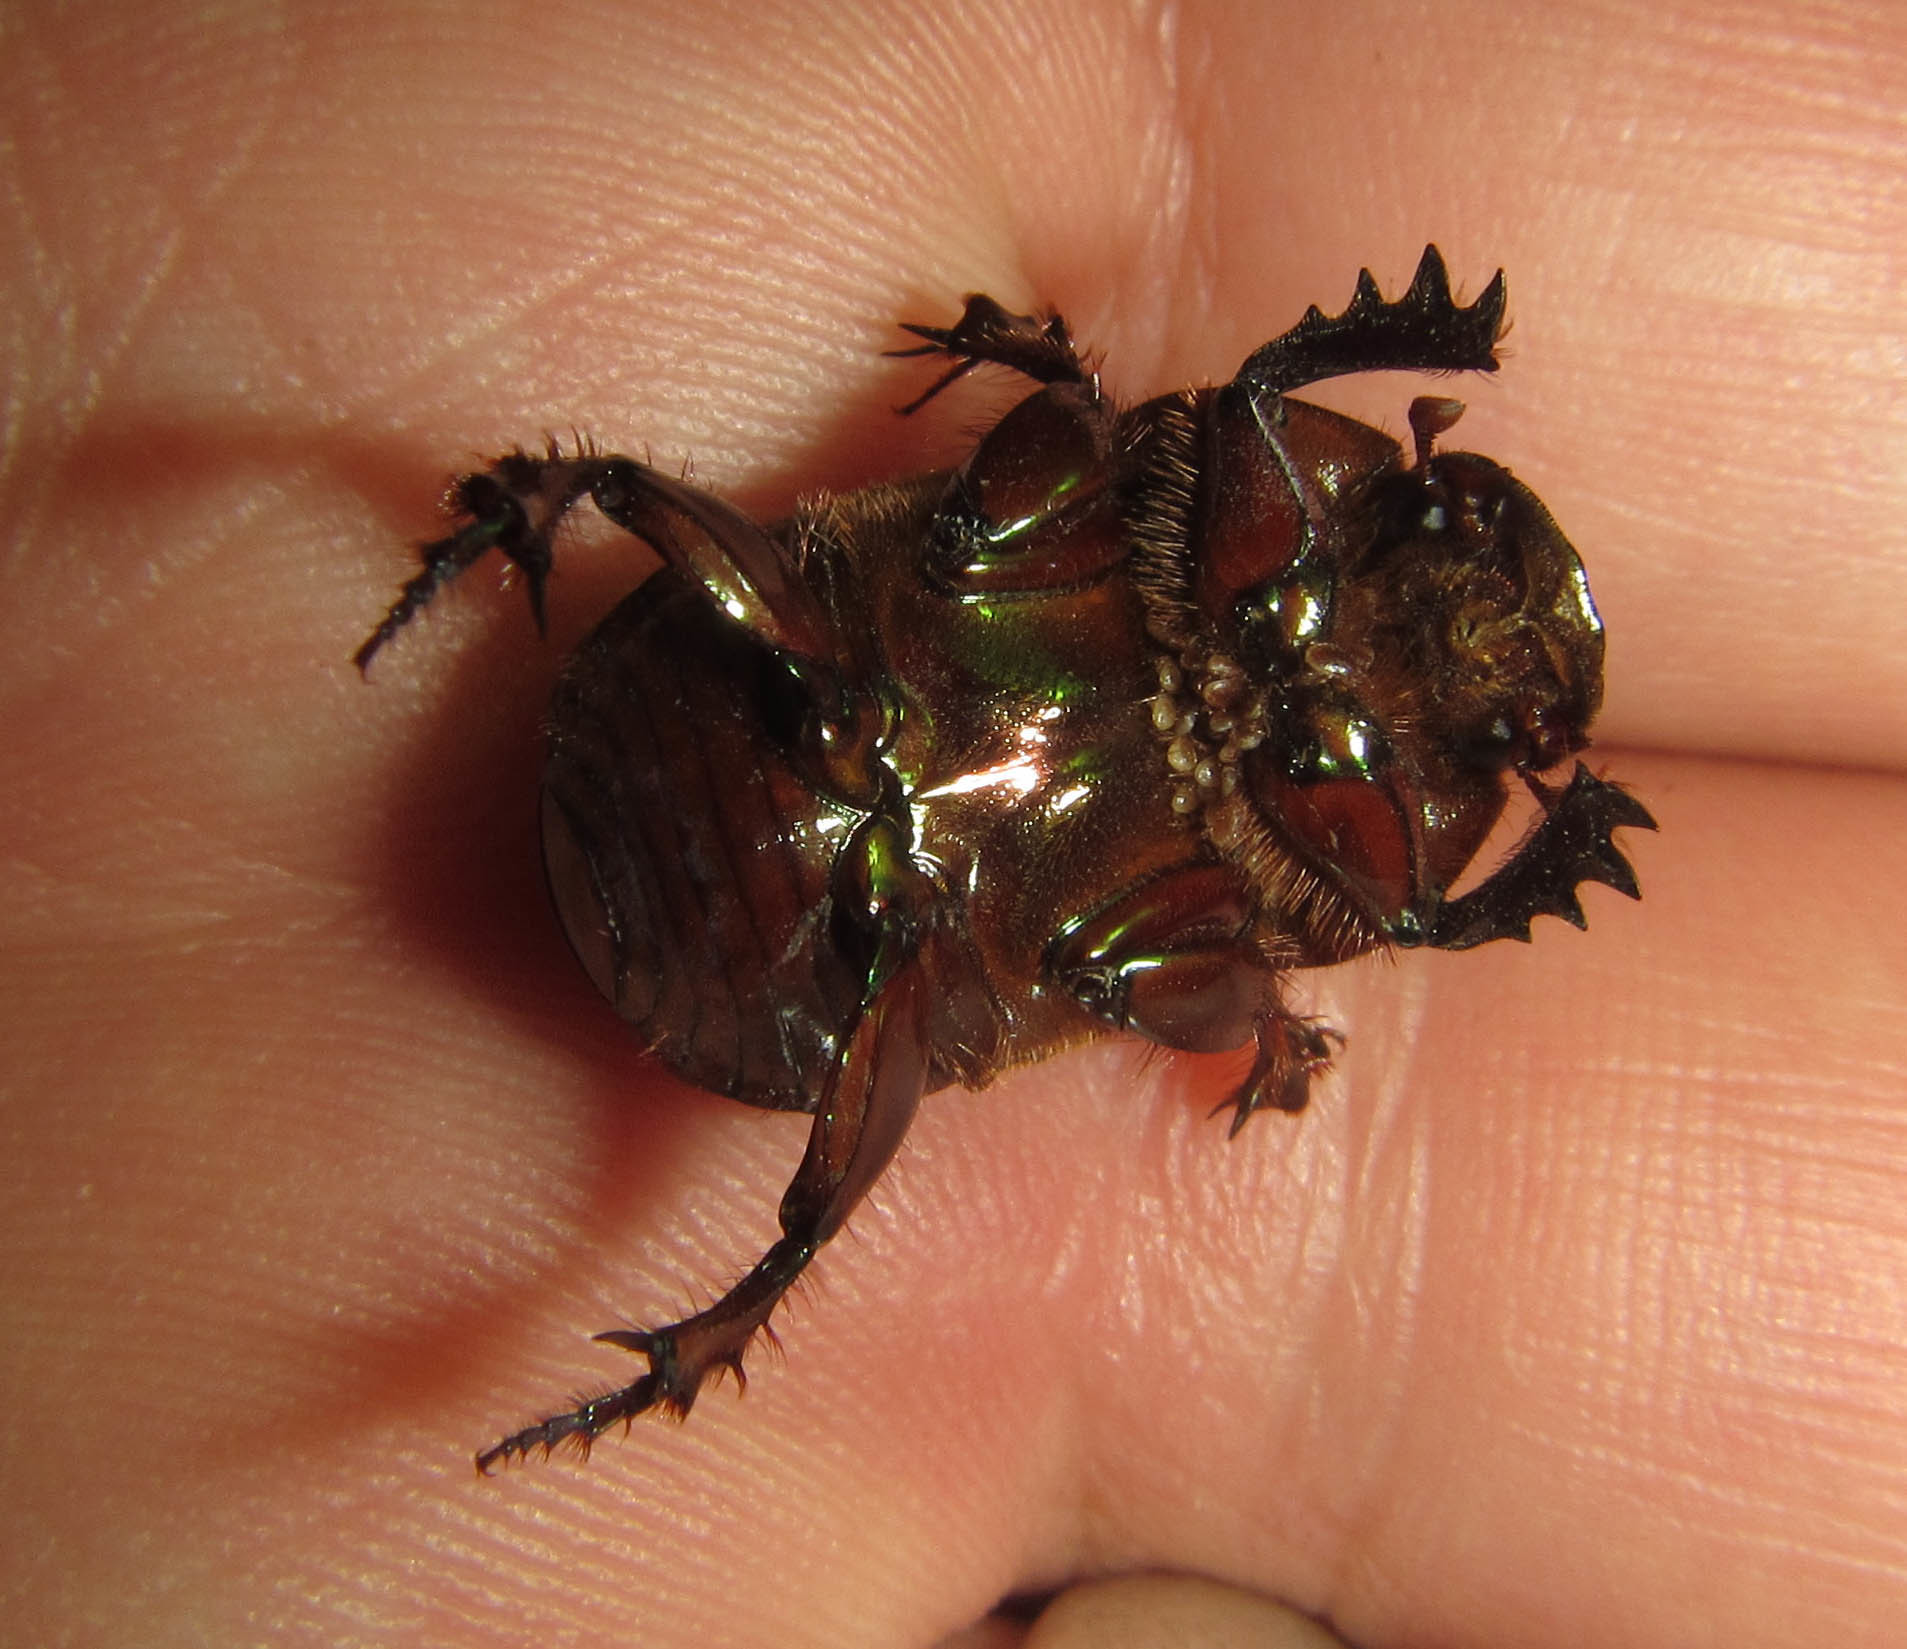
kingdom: Animalia
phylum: Arthropoda
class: Insecta
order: Coleoptera
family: Scarabaeidae
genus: Onitis
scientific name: Onitis alexis
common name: Alexis dung beetle
